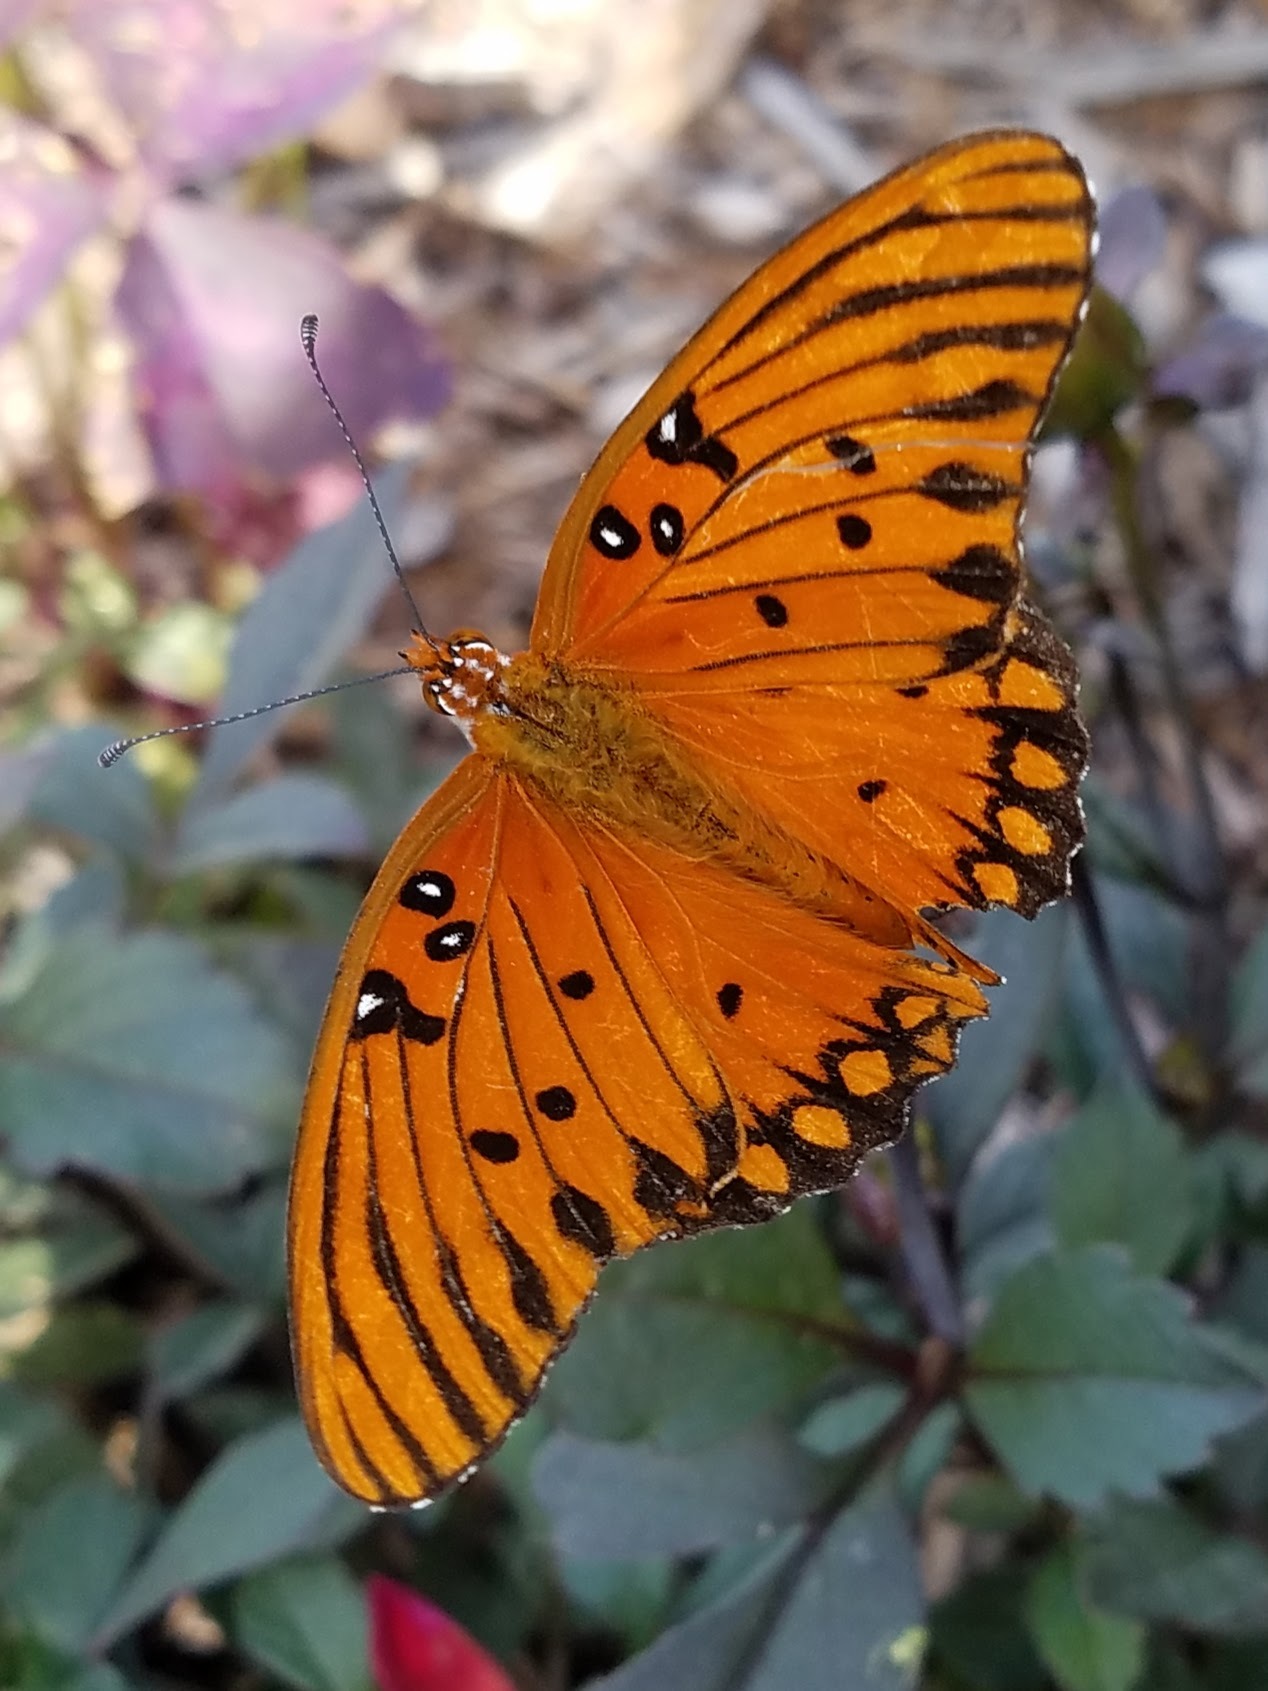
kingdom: Animalia
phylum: Arthropoda
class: Insecta
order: Lepidoptera
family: Nymphalidae
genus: Dione
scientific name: Dione vanillae
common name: Gulf fritillary
